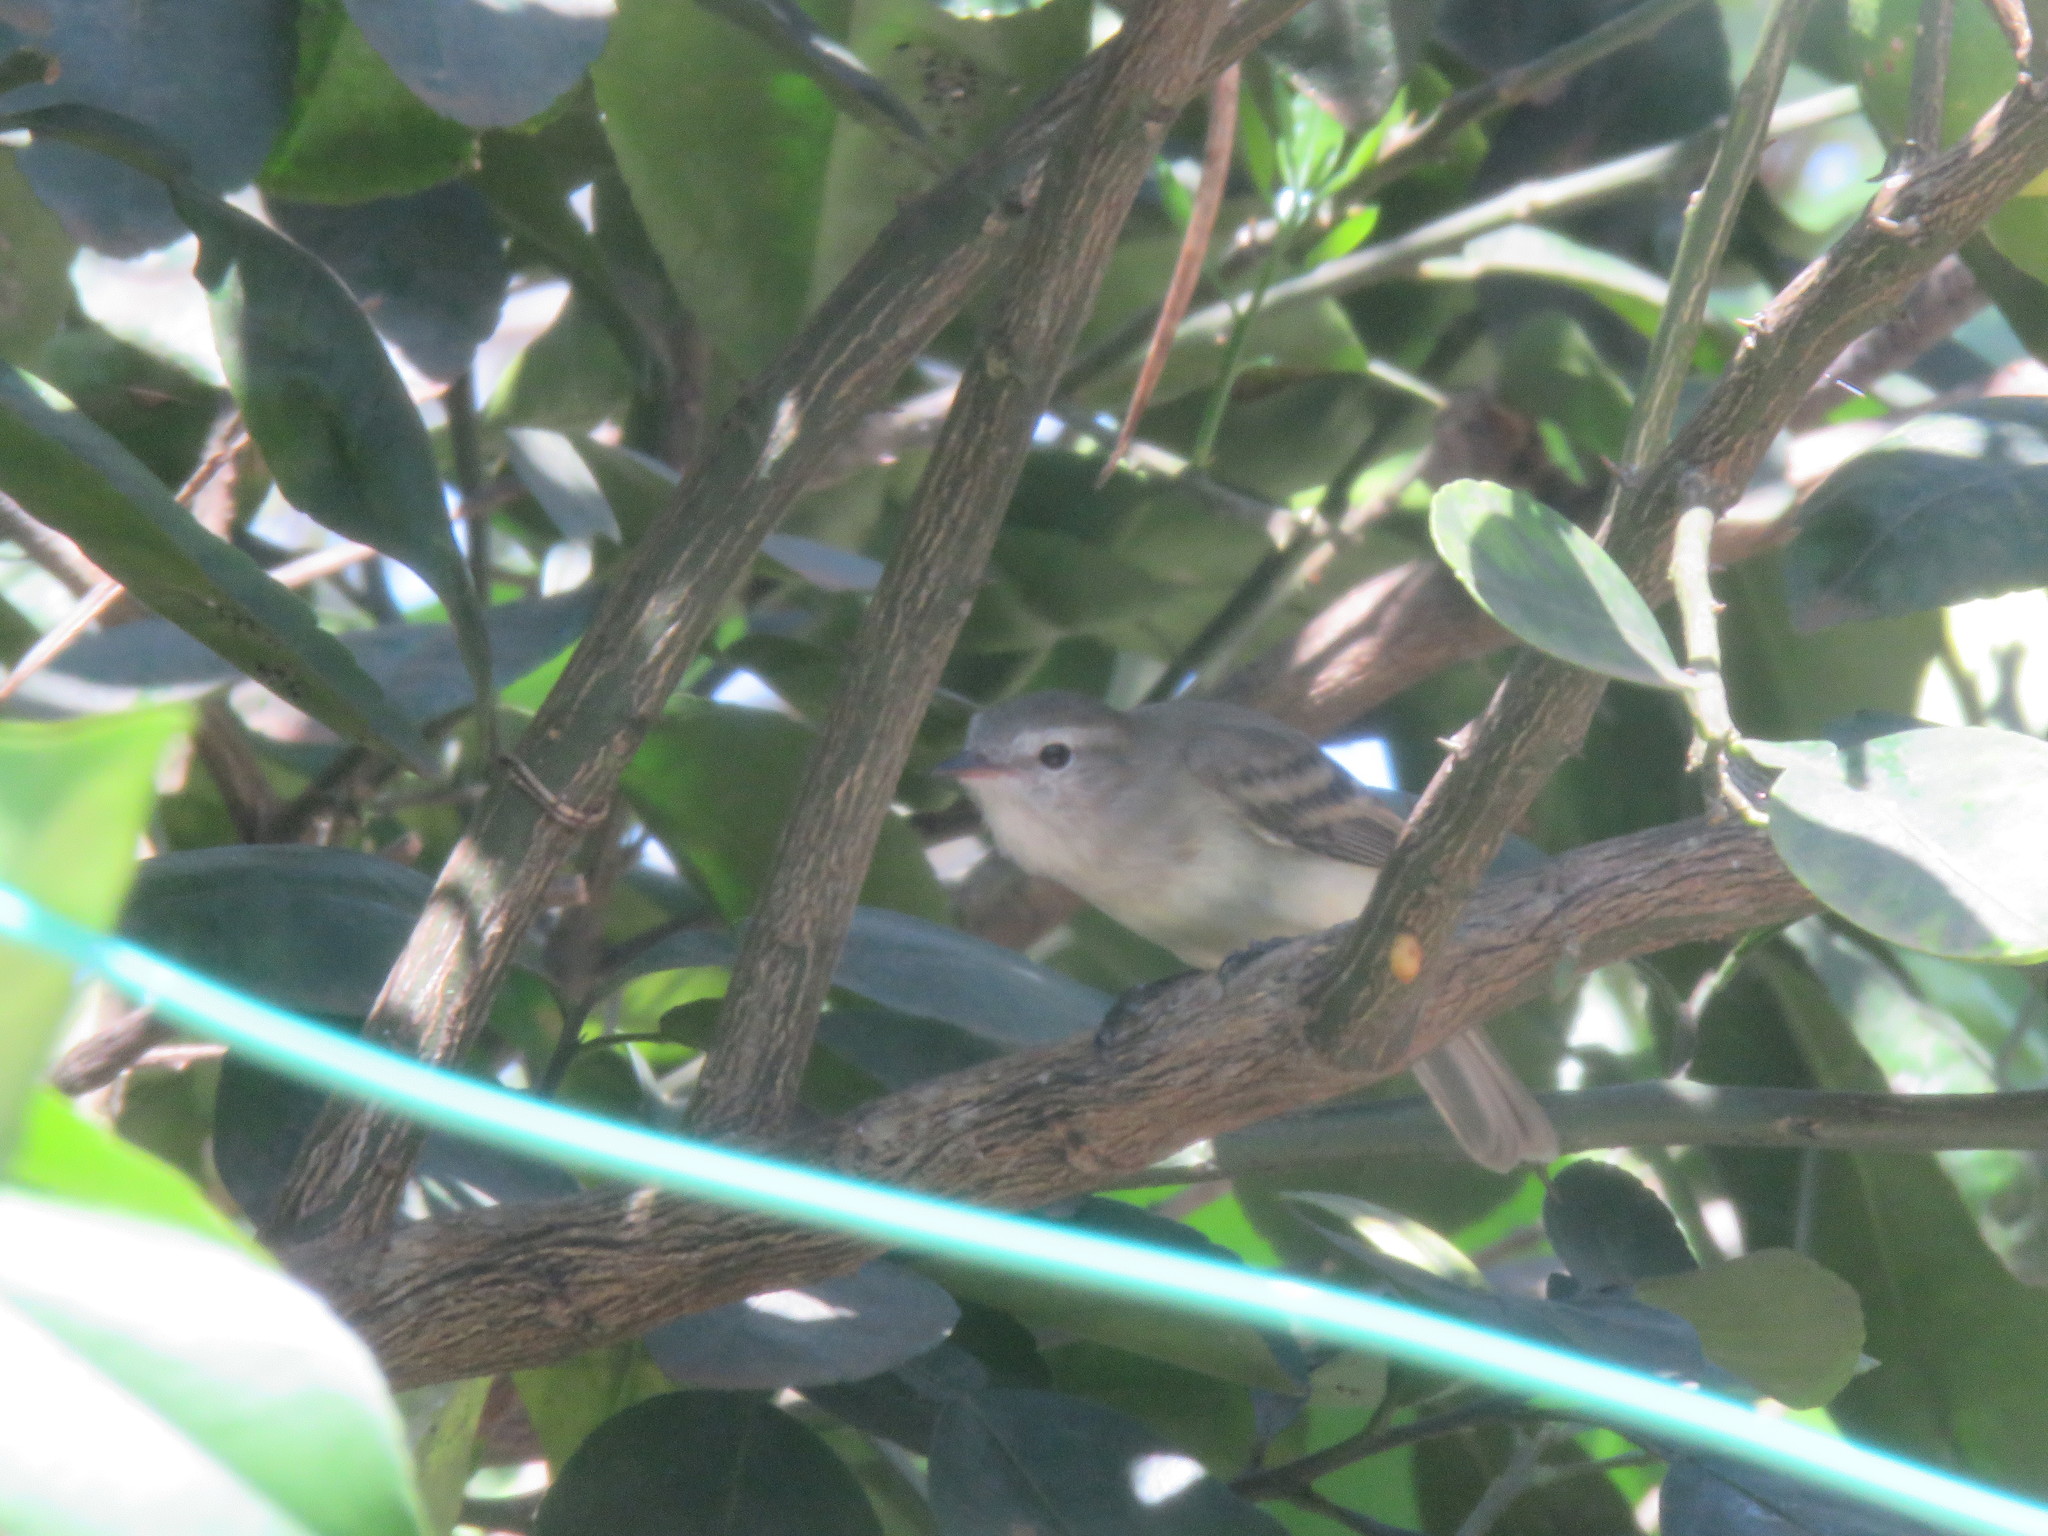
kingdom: Animalia
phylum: Chordata
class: Aves
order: Passeriformes
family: Tyrannidae
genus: Phaeomyias
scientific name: Phaeomyias murina
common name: Mouse-colored tyrannulet
